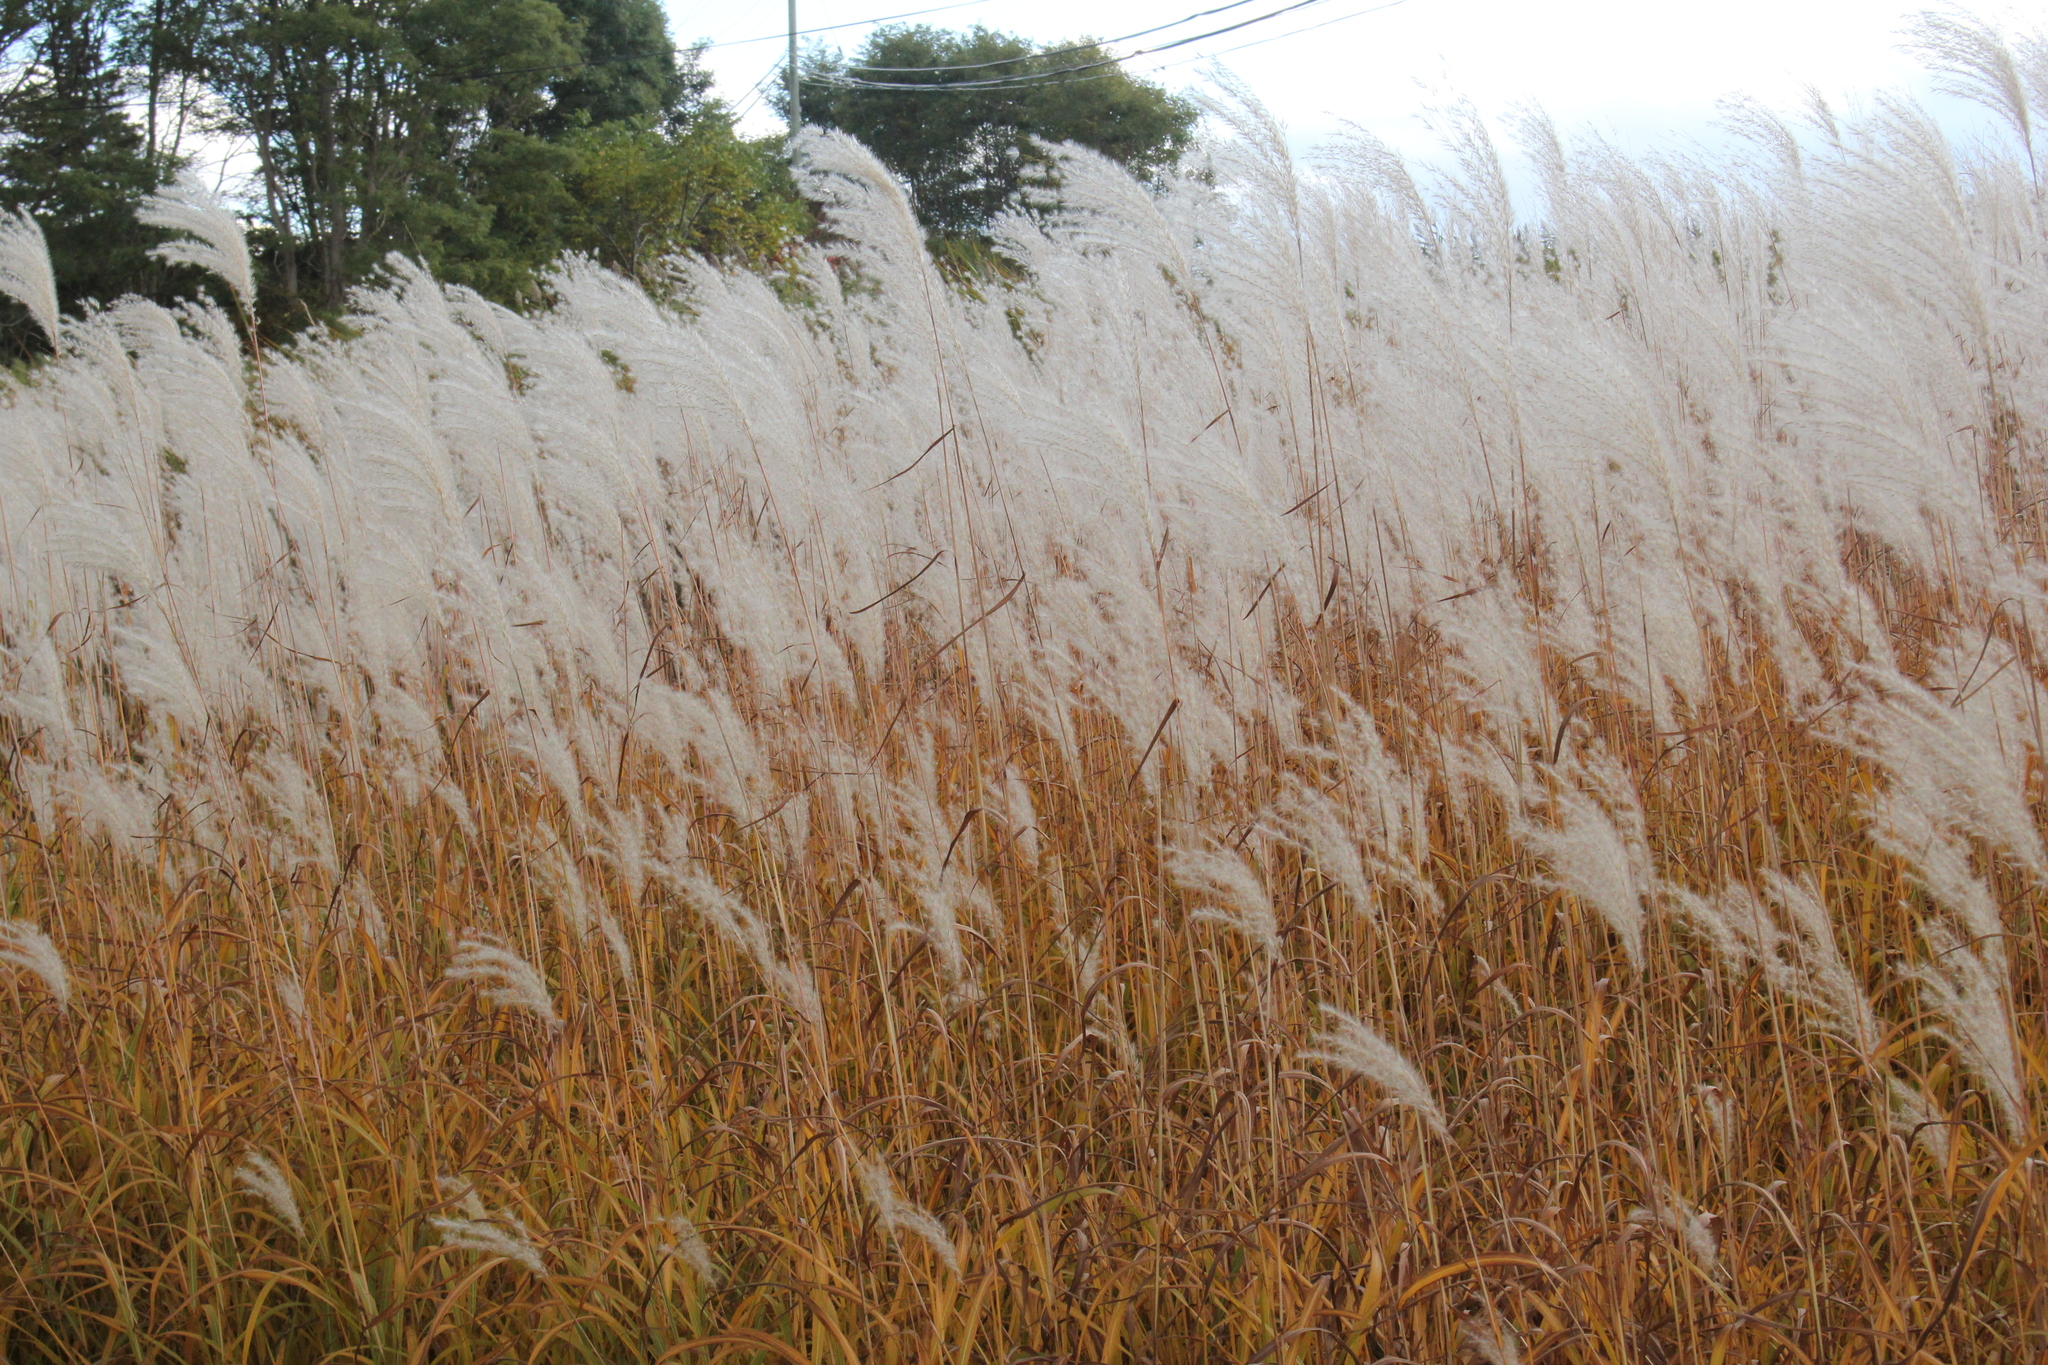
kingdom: Plantae
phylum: Tracheophyta
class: Liliopsida
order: Poales
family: Poaceae
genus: Miscanthus
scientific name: Miscanthus sinensis
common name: Chinese silvergrass
